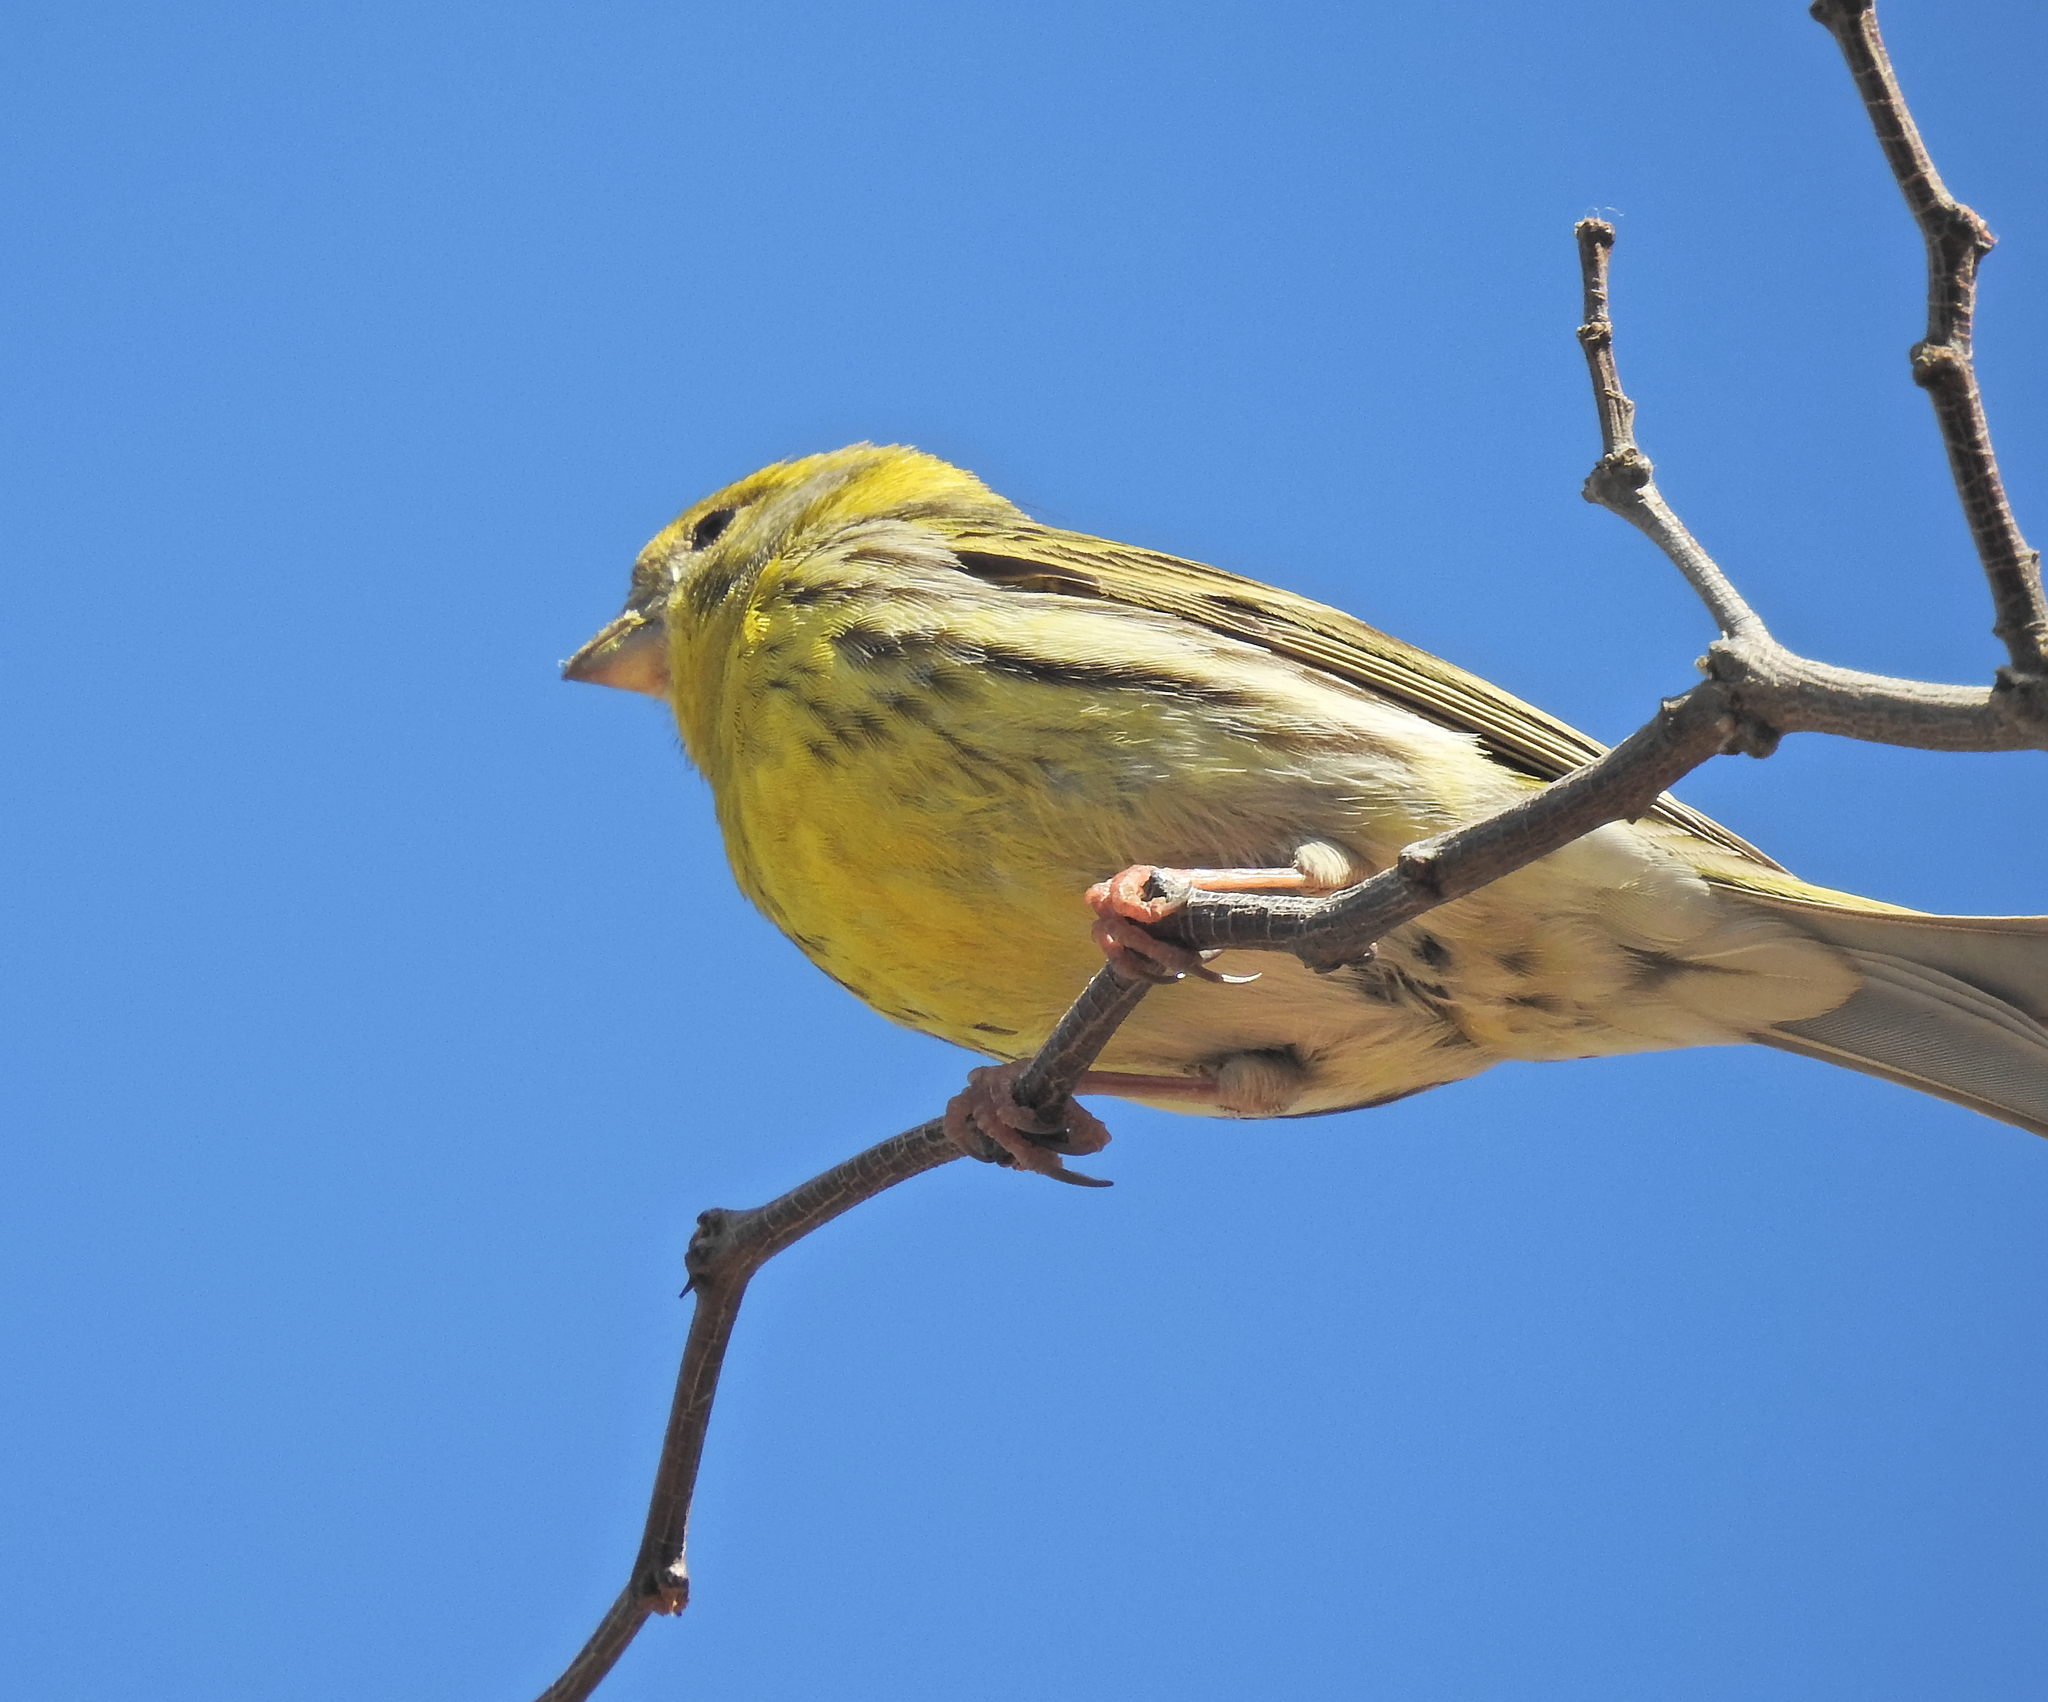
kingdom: Animalia
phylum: Chordata
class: Aves
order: Passeriformes
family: Fringillidae
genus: Serinus
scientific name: Serinus serinus
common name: European serin
